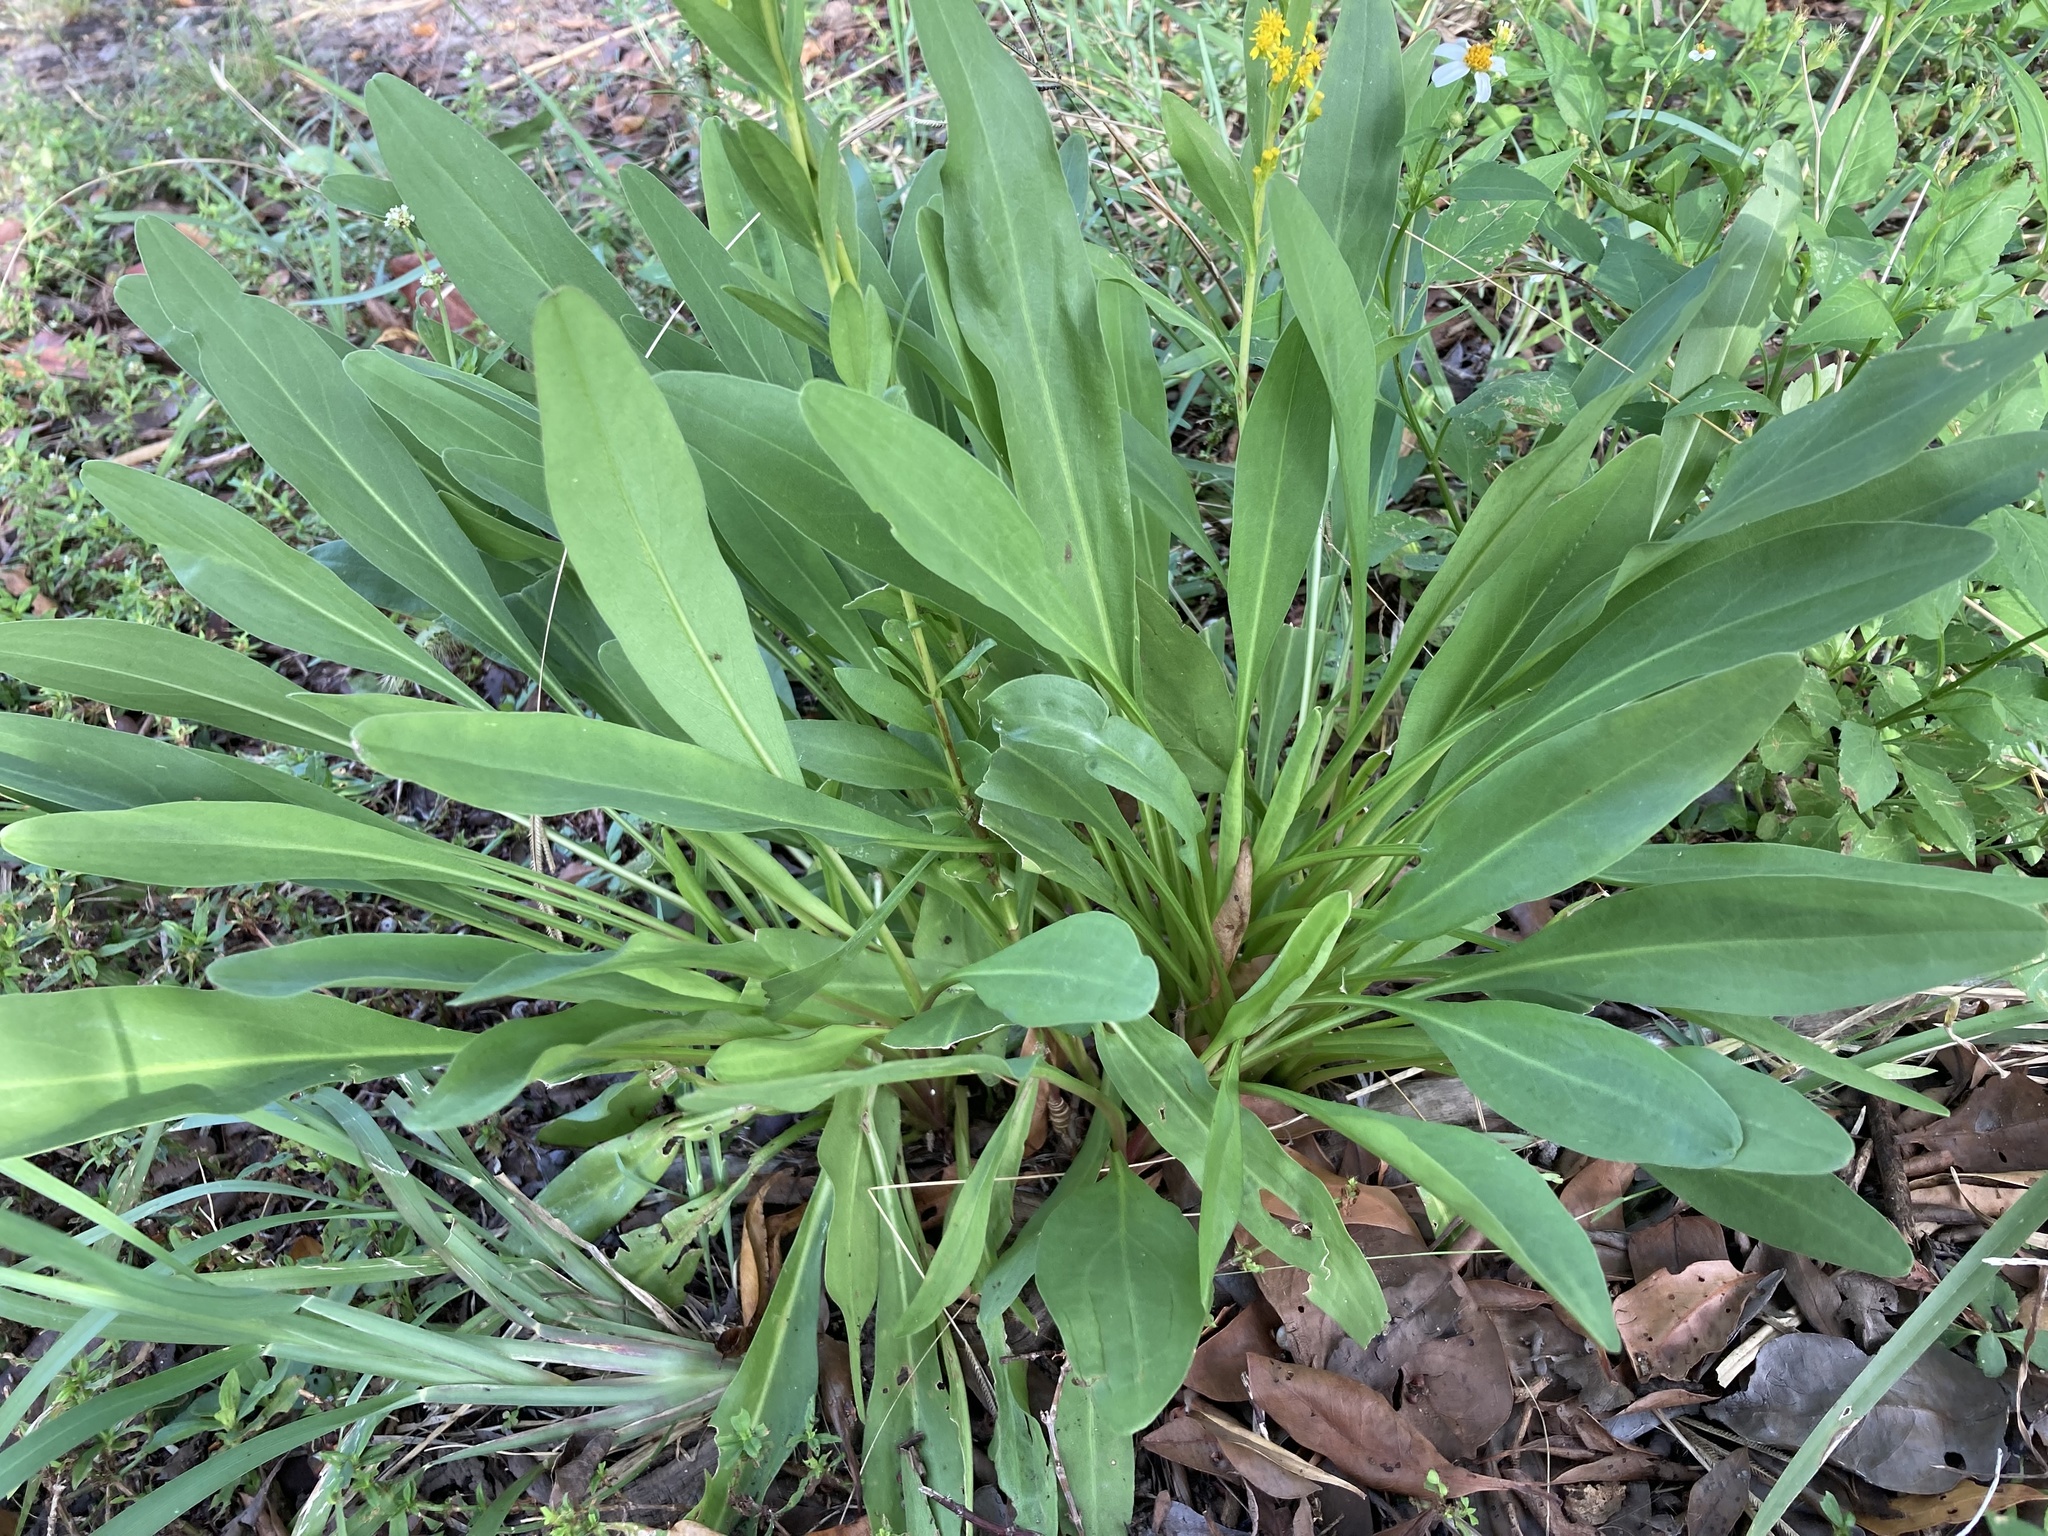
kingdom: Plantae
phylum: Tracheophyta
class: Magnoliopsida
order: Asterales
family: Asteraceae
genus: Solidago
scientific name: Solidago mexicana
